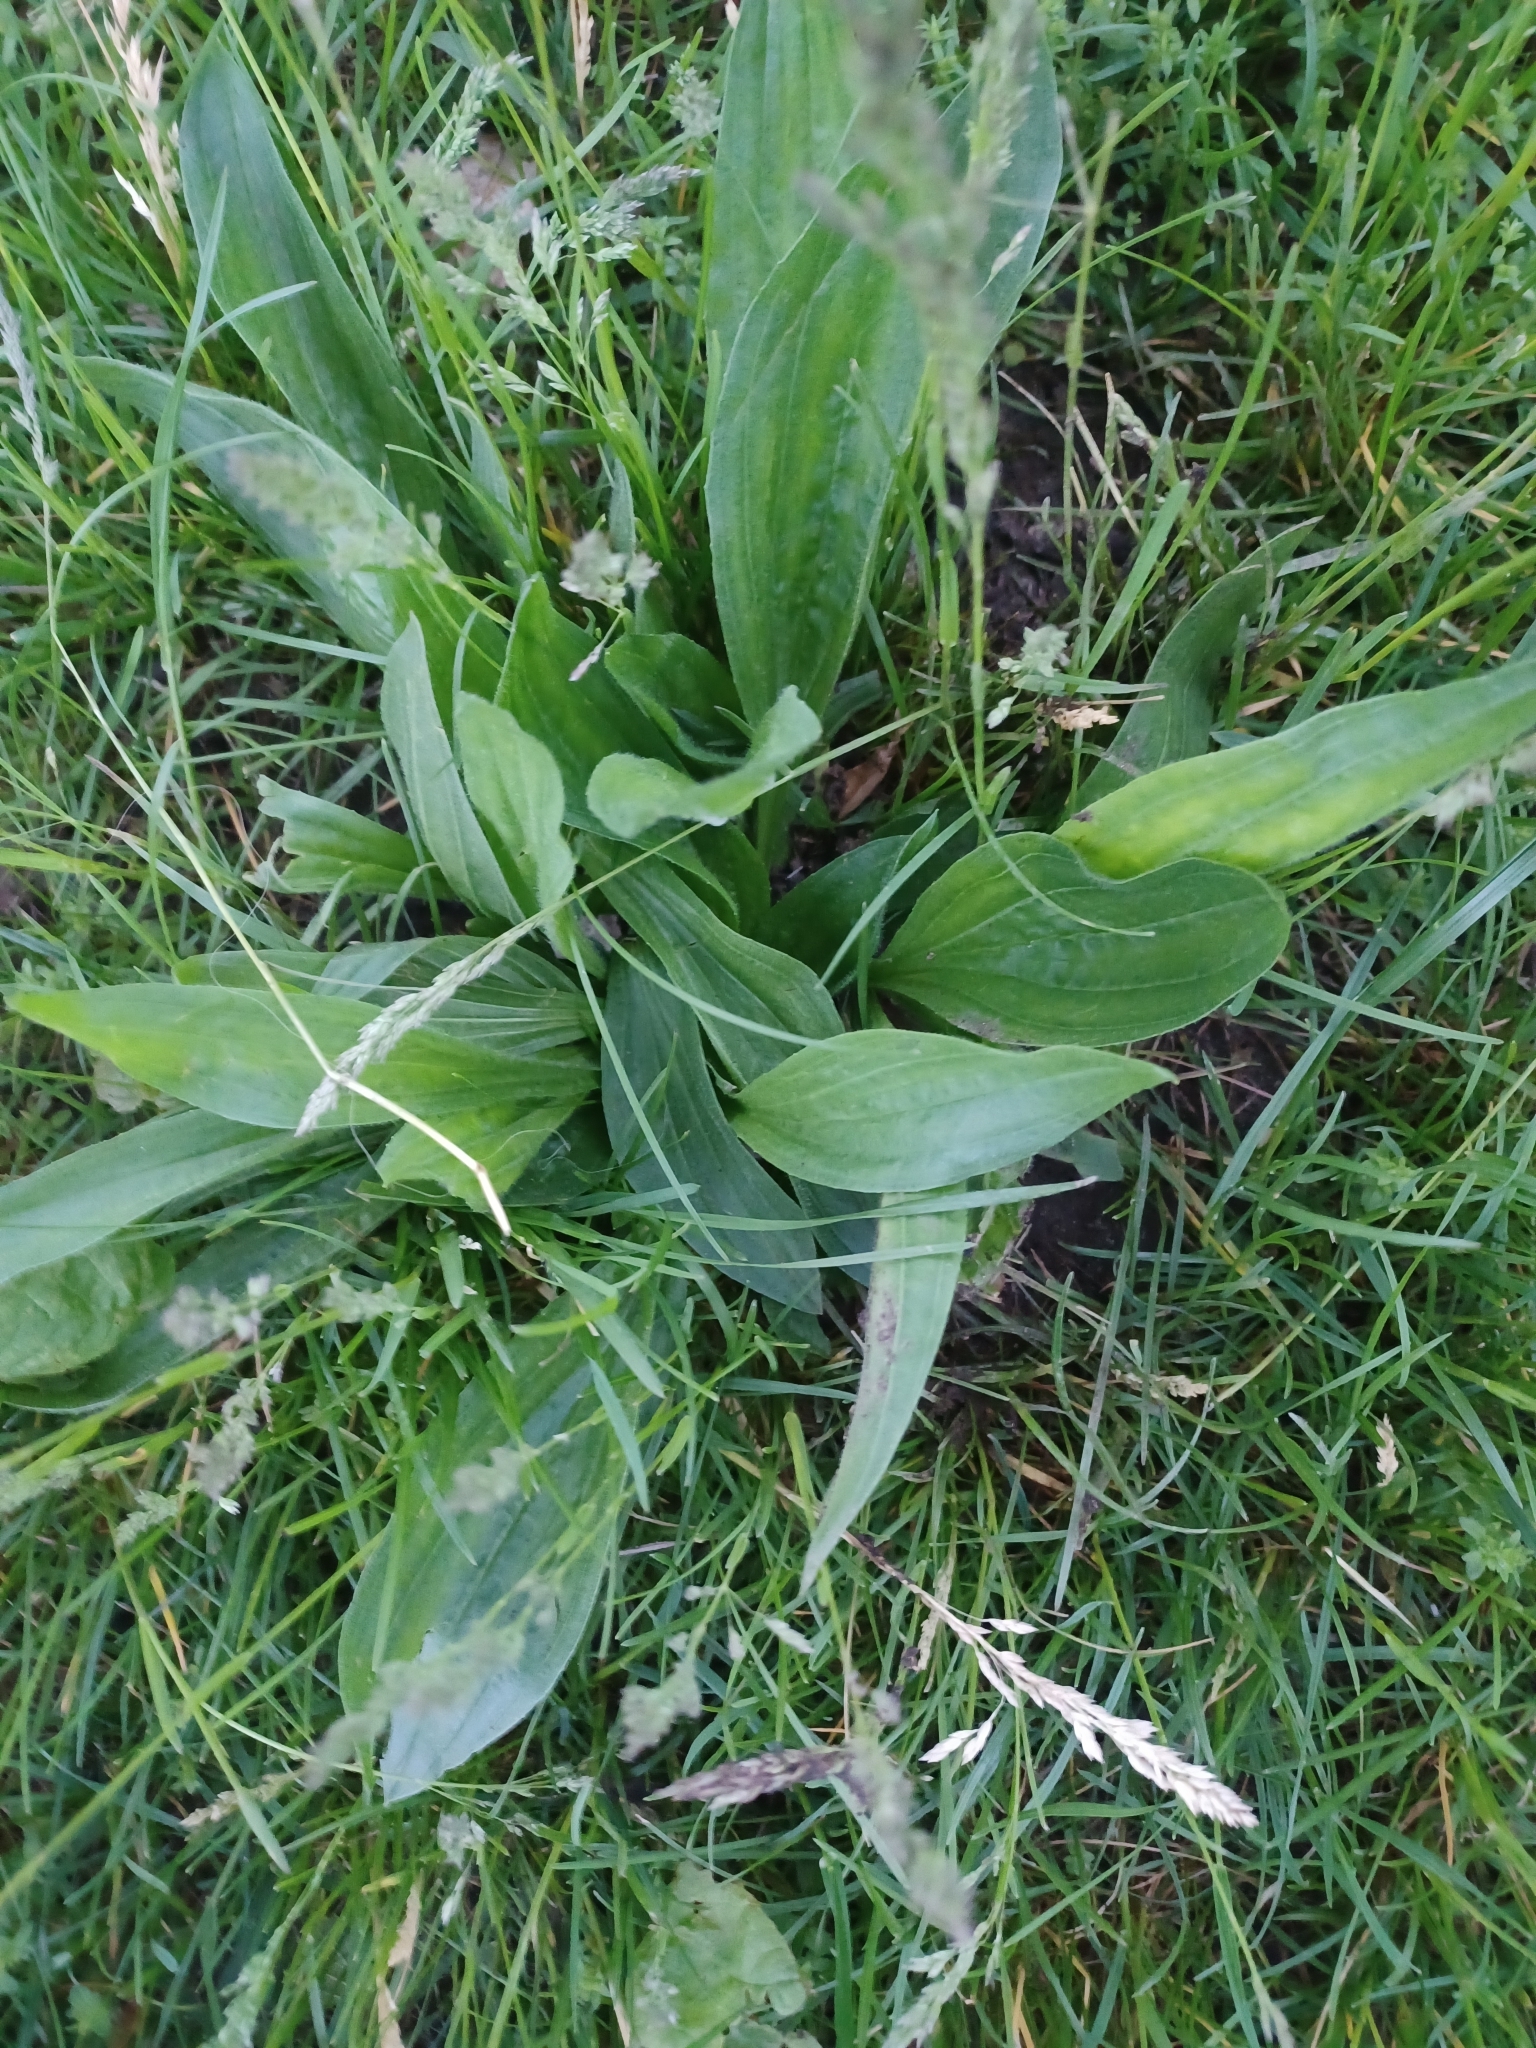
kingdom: Plantae
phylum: Tracheophyta
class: Magnoliopsida
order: Lamiales
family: Plantaginaceae
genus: Plantago
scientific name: Plantago lanceolata
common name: Ribwort plantain
